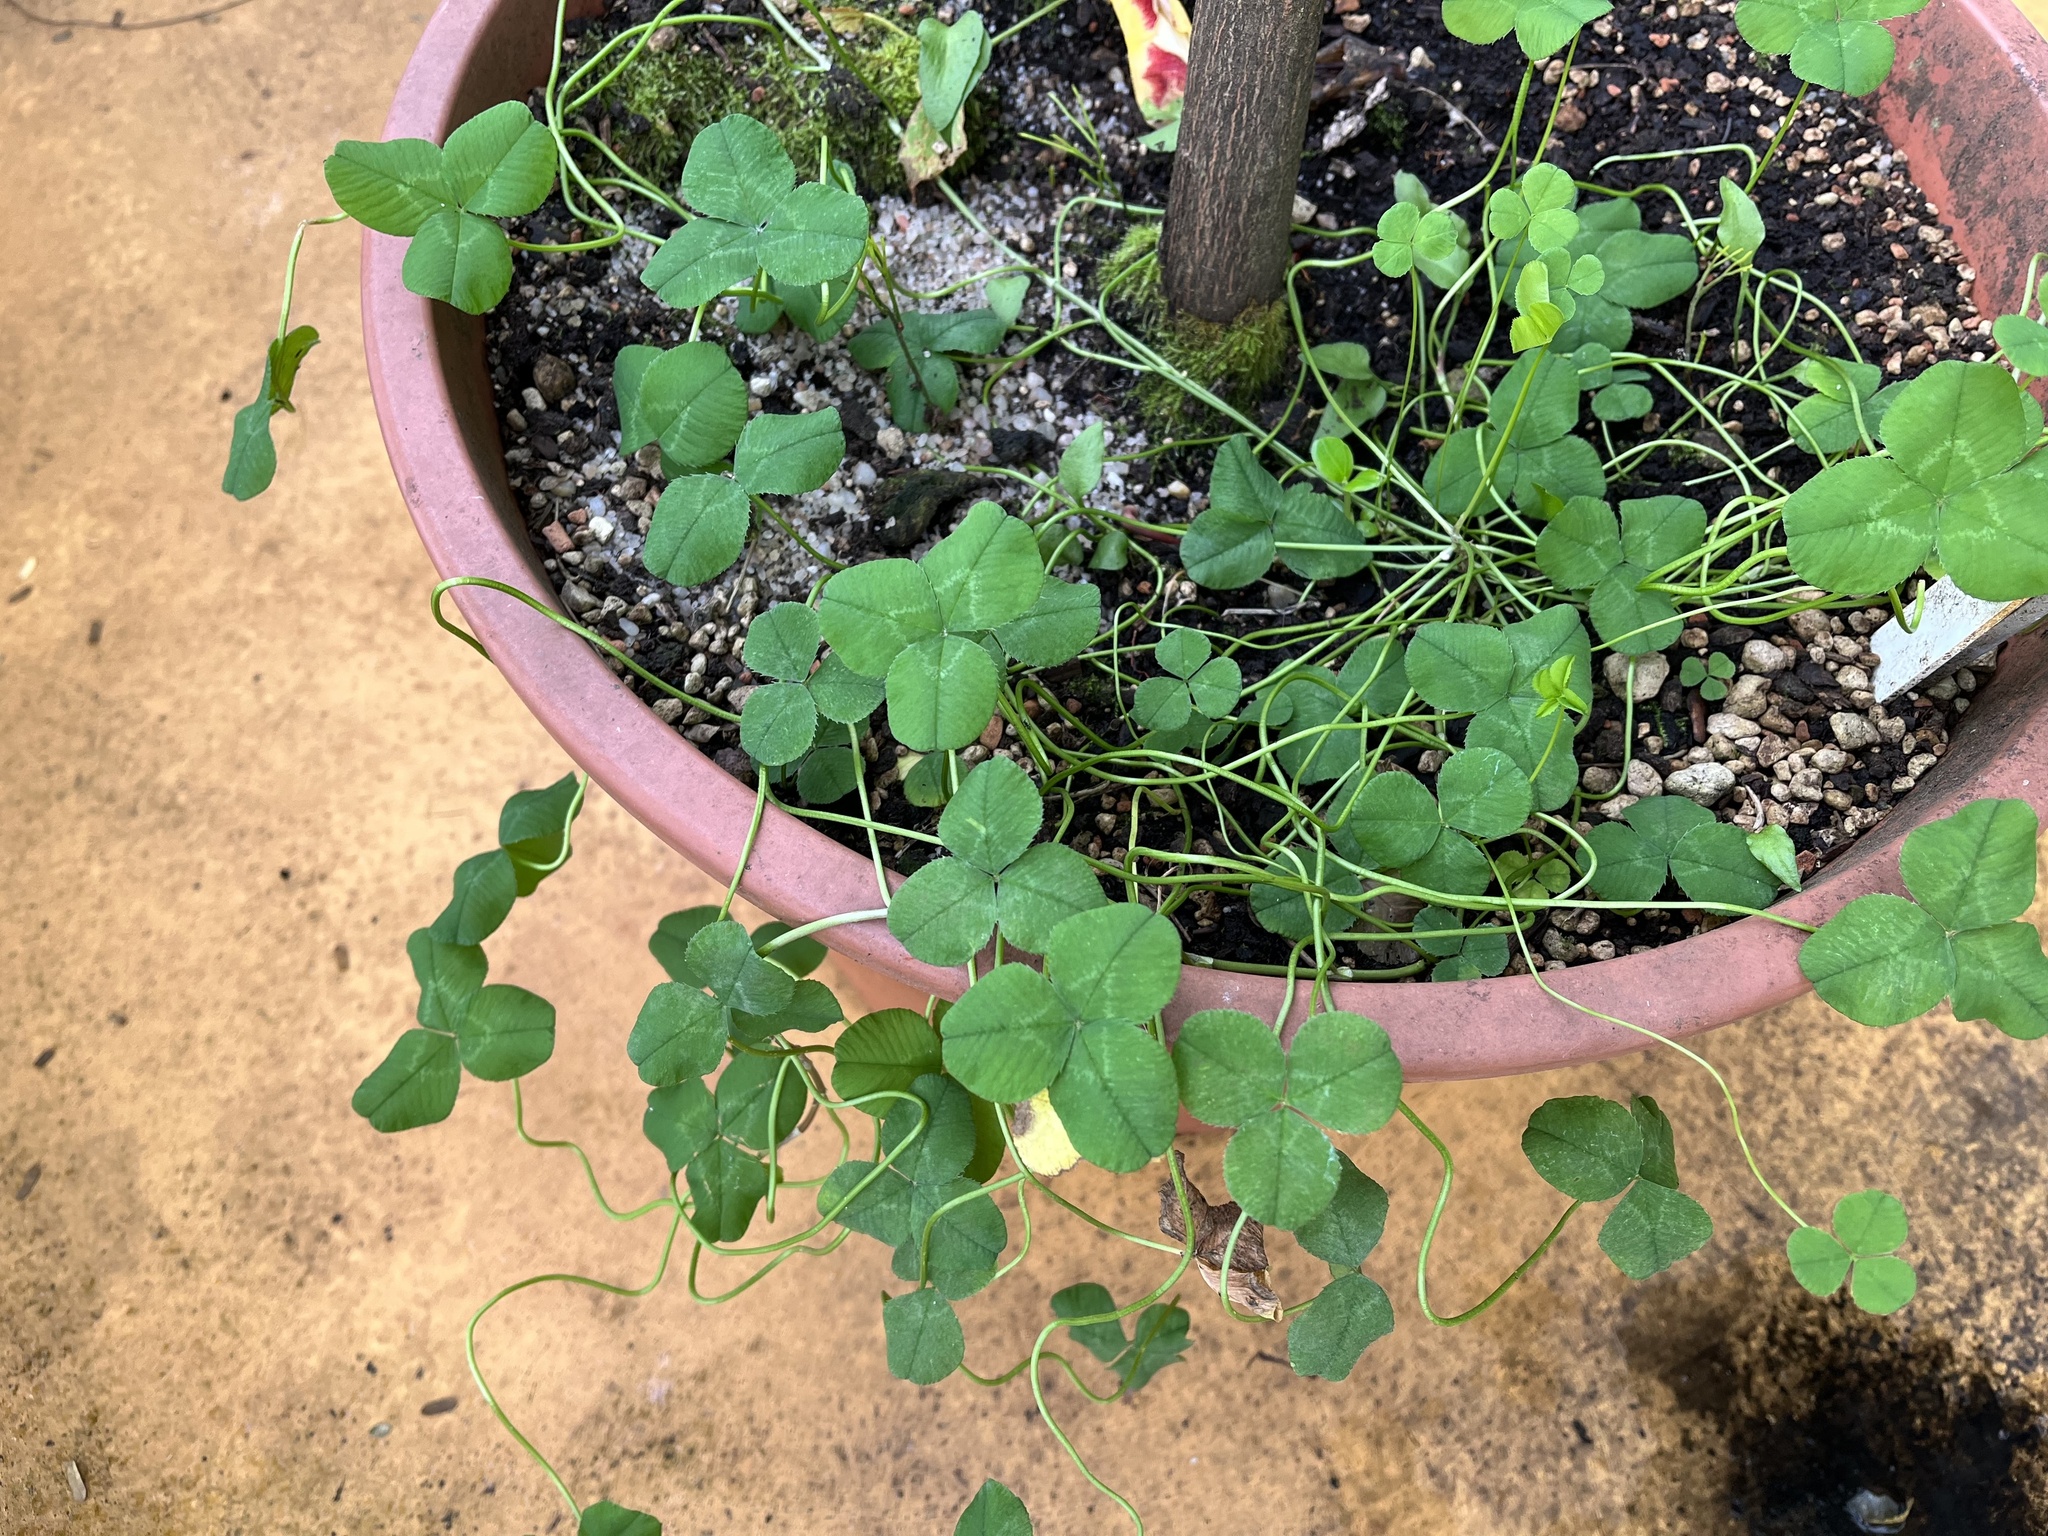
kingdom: Plantae
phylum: Tracheophyta
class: Magnoliopsida
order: Fabales
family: Fabaceae
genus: Trifolium
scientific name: Trifolium repens
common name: White clover
